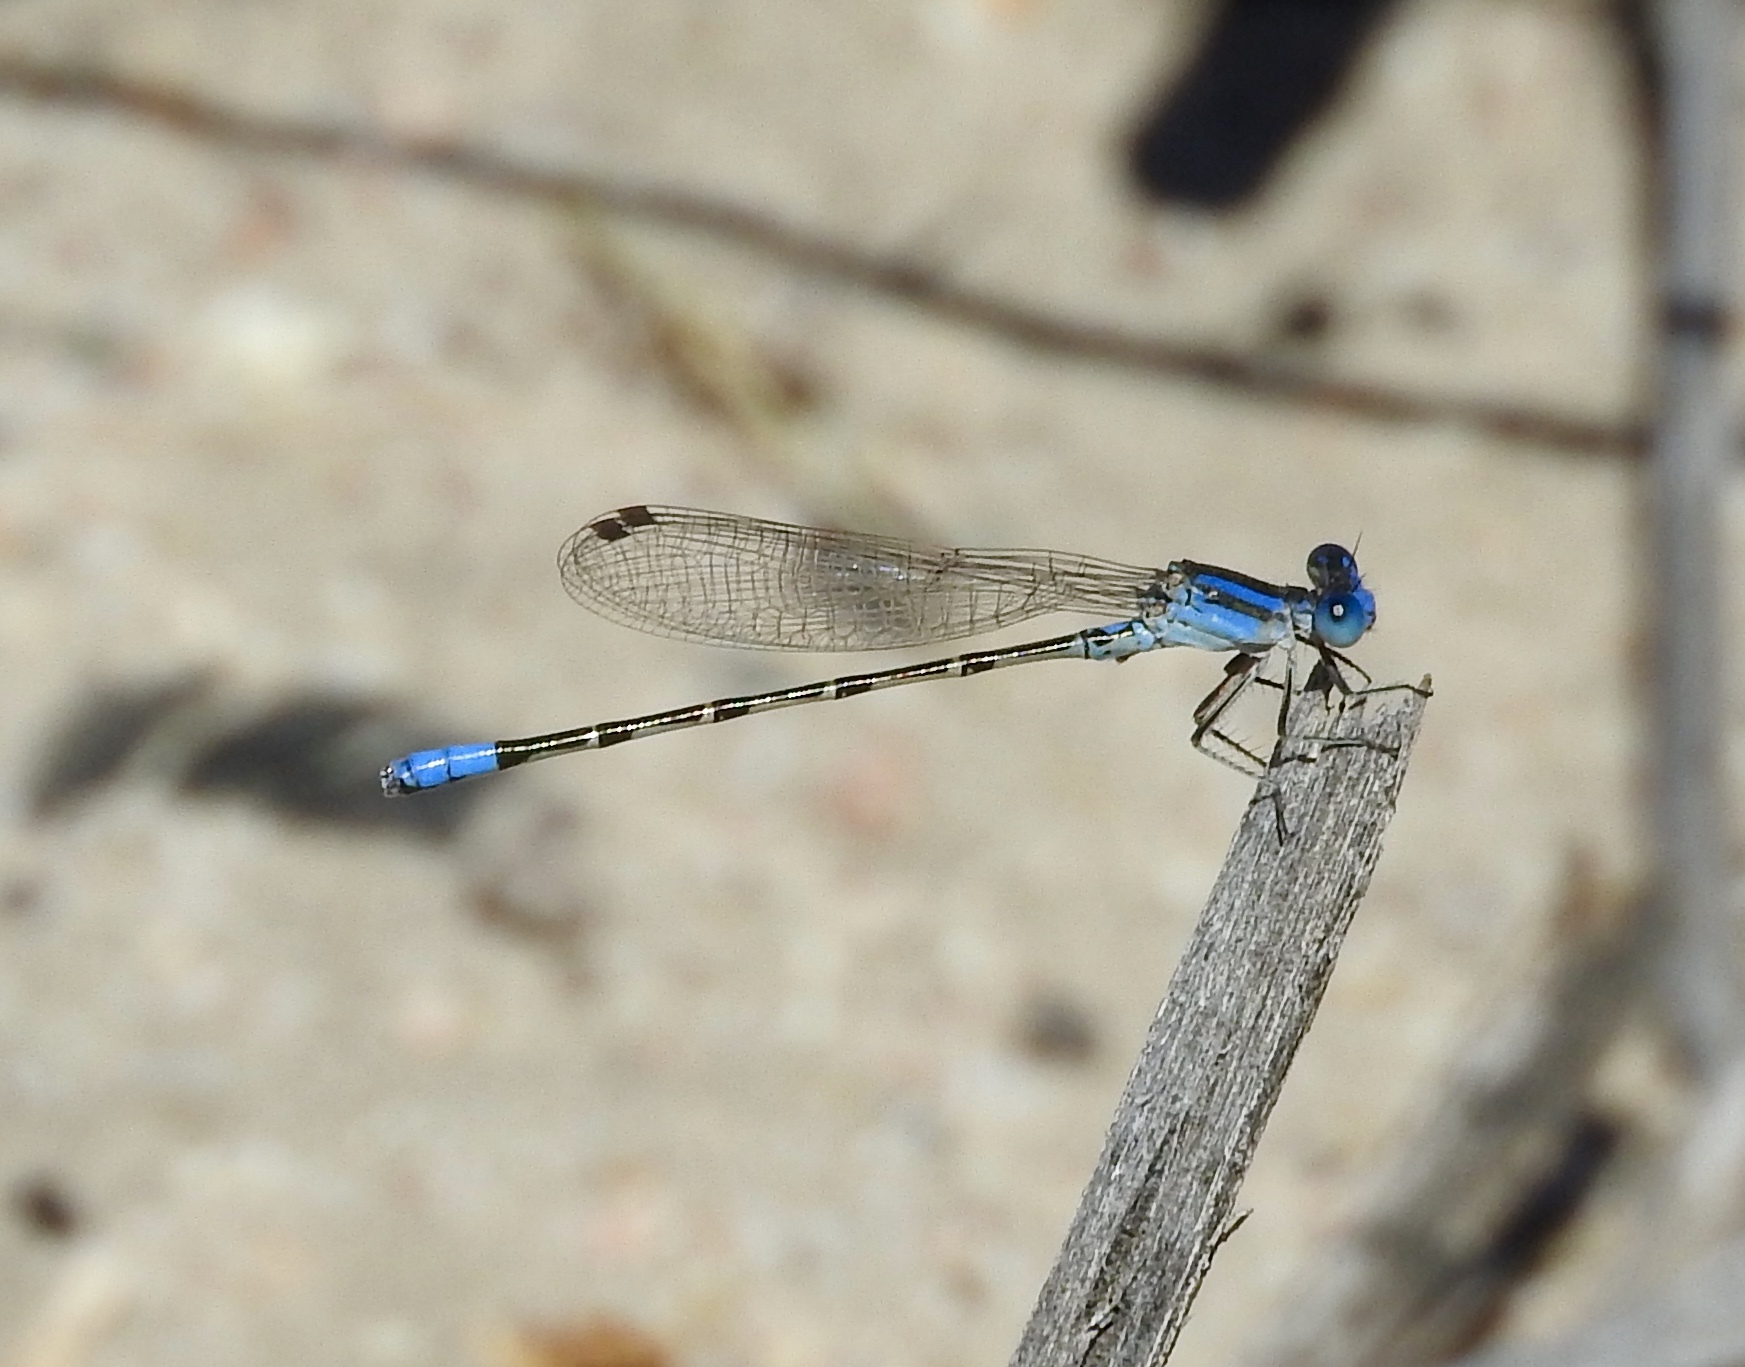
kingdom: Animalia
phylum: Arthropoda
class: Insecta
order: Odonata
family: Coenagrionidae
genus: Argia
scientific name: Argia alberta
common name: Paiute dancer
